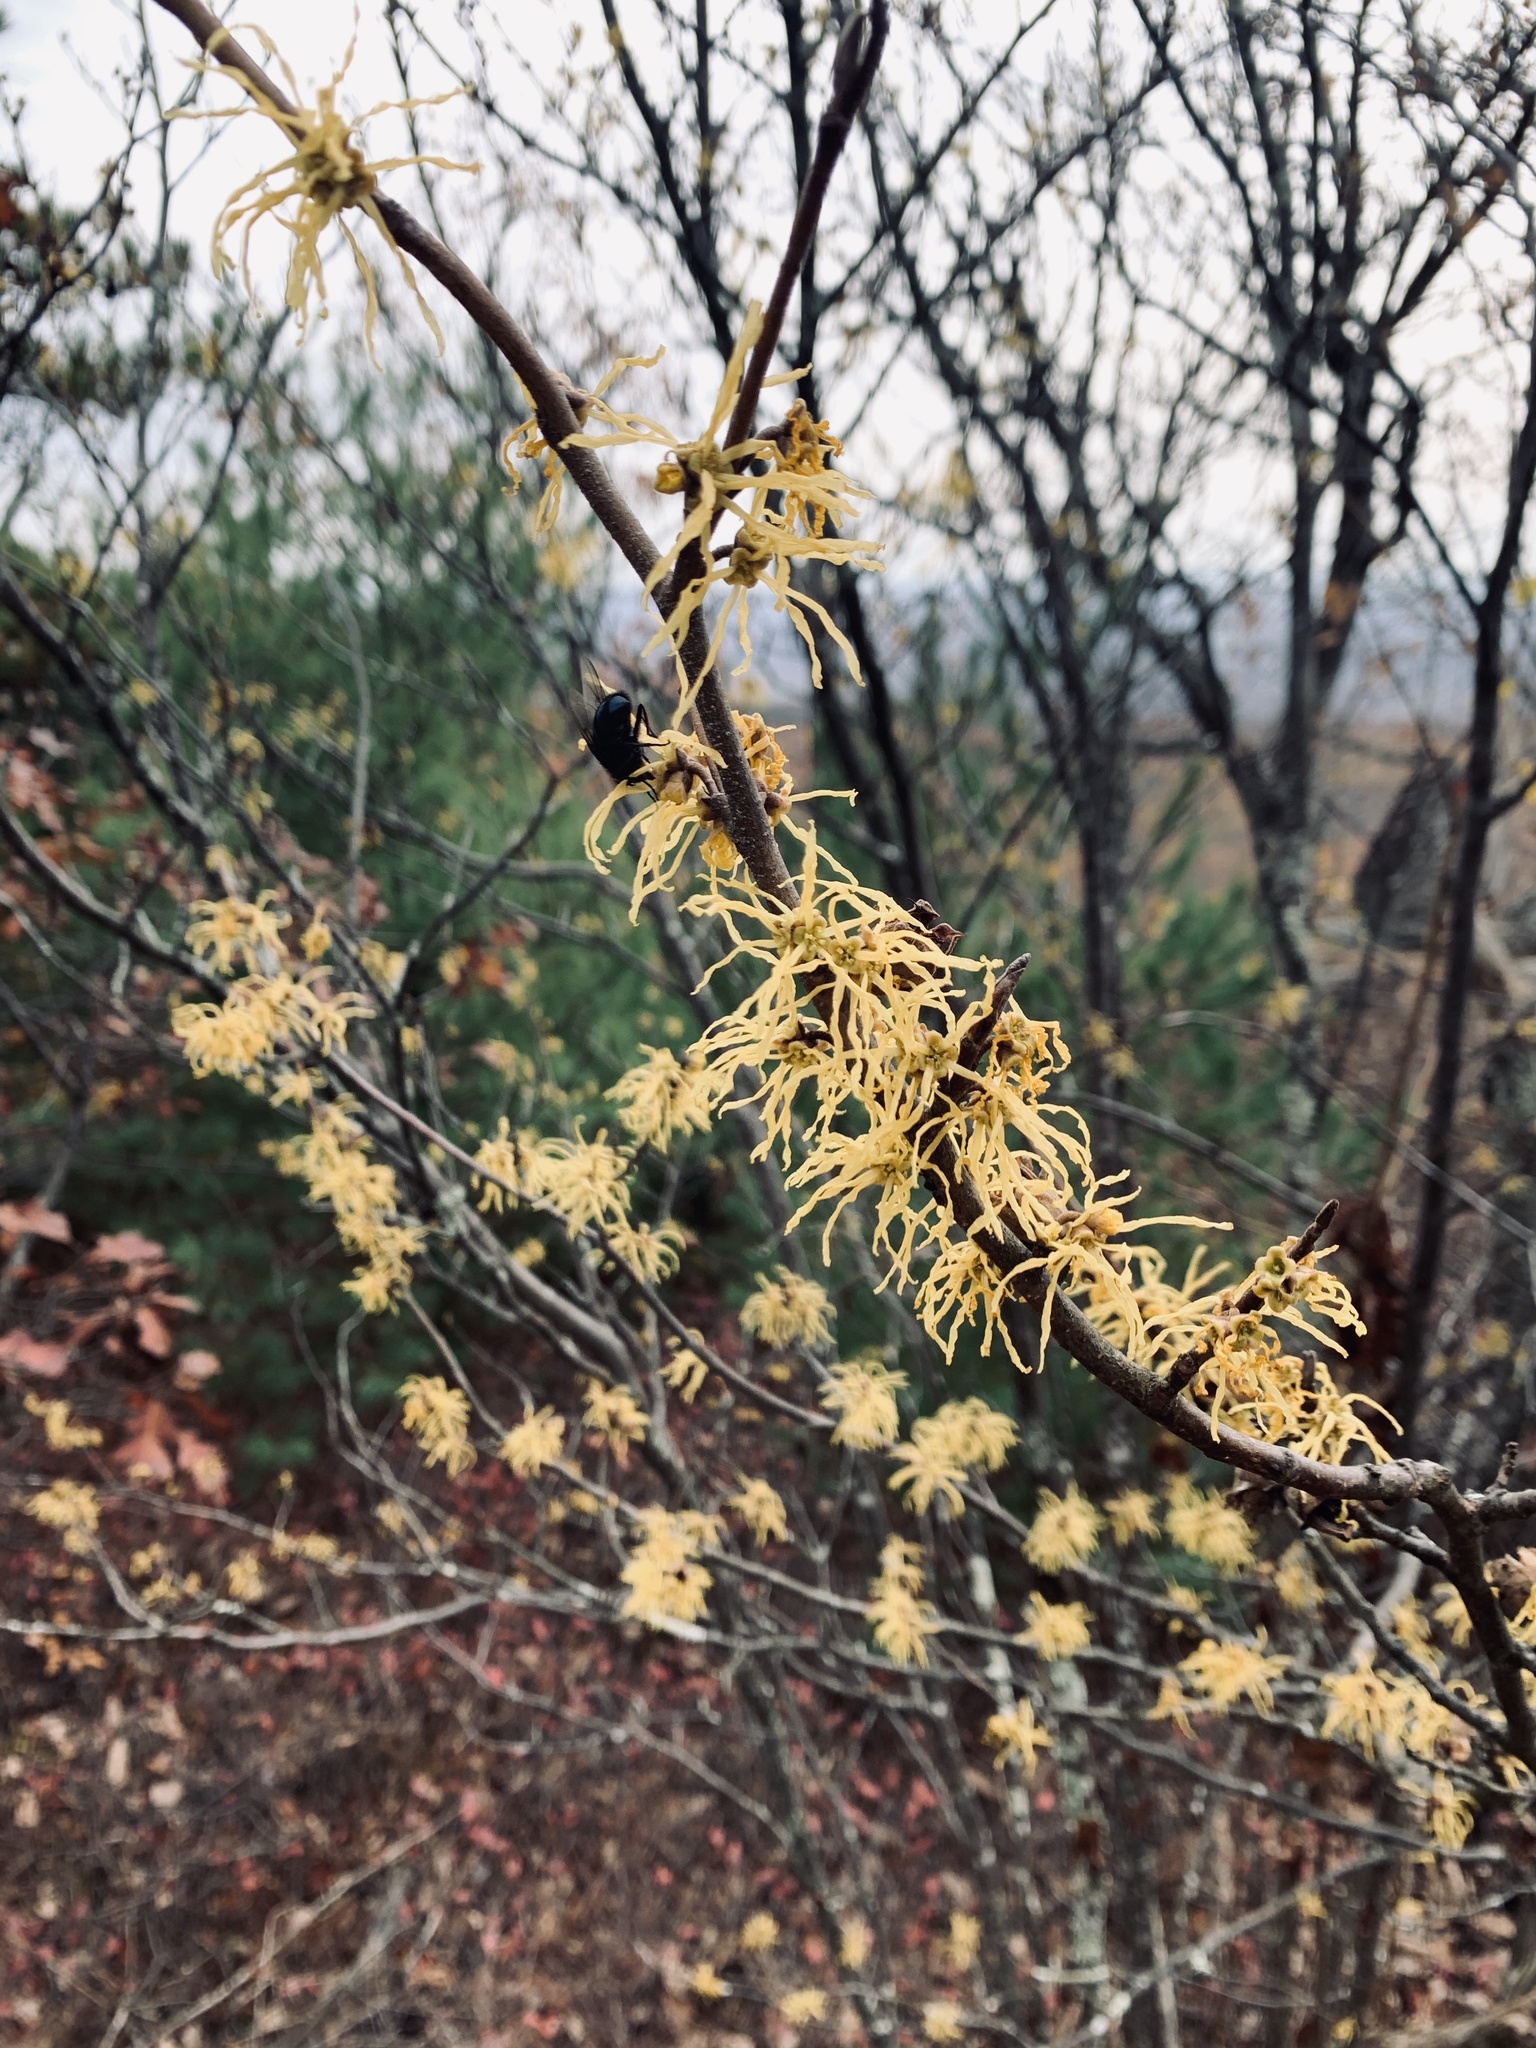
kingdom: Plantae
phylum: Tracheophyta
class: Magnoliopsida
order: Saxifragales
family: Hamamelidaceae
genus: Hamamelis
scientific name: Hamamelis virginiana
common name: Witch-hazel
